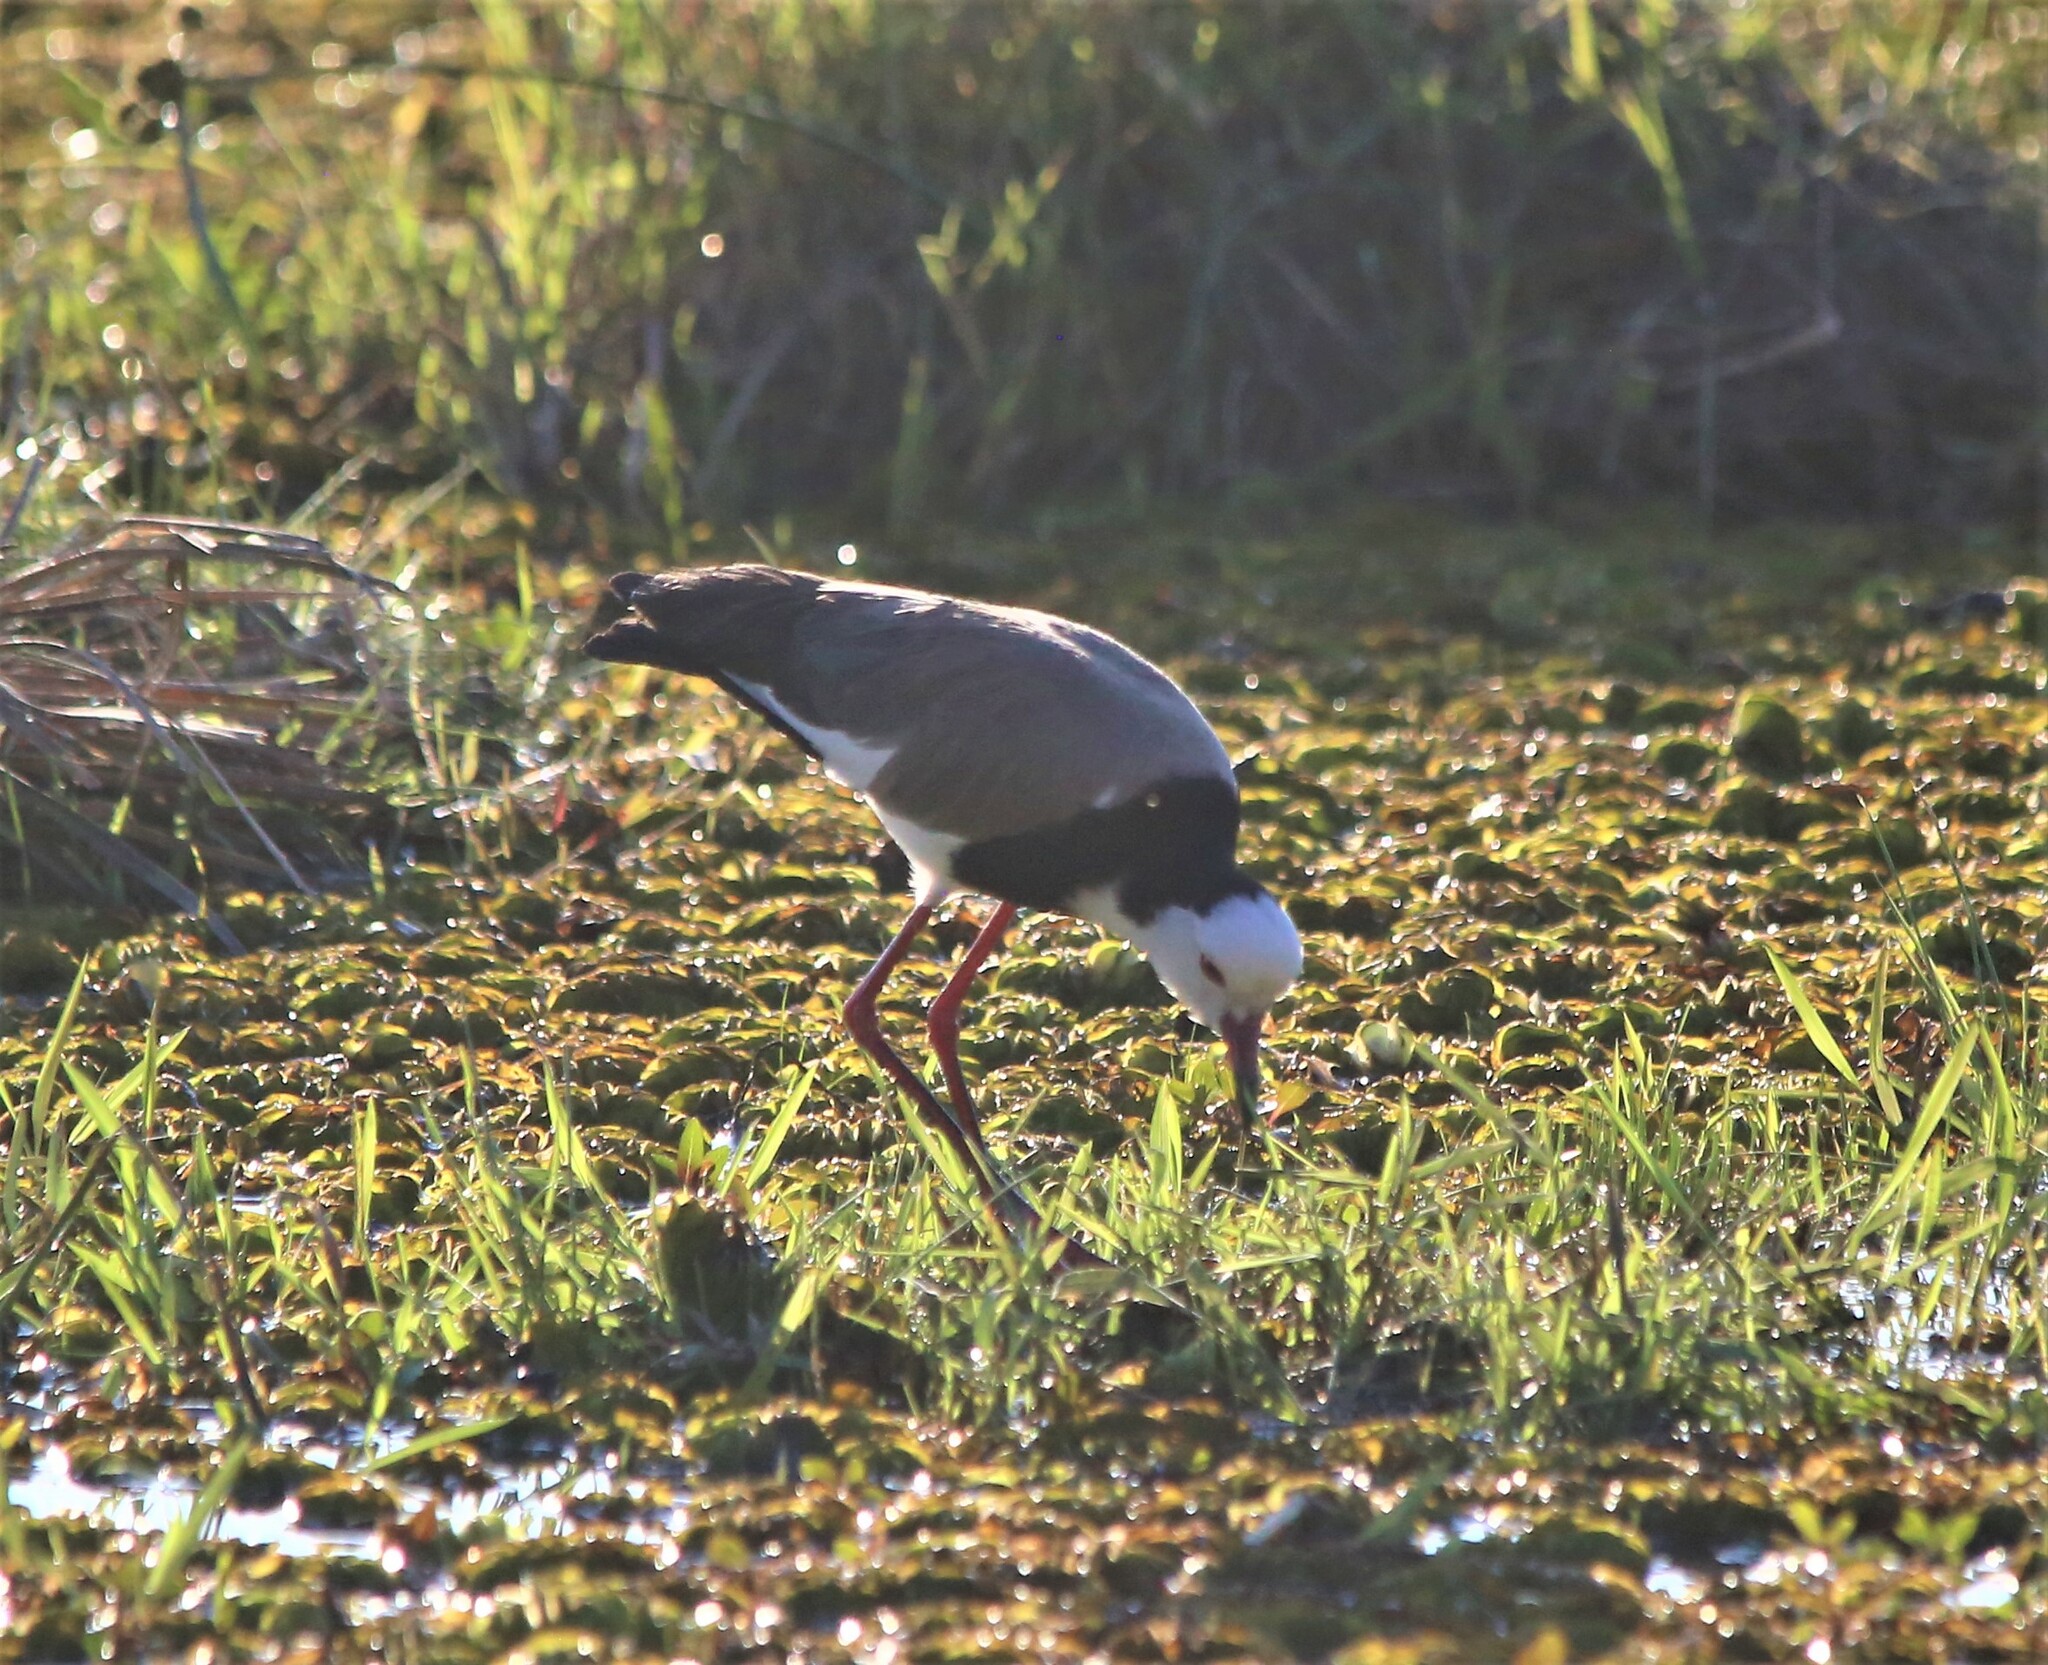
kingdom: Animalia
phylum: Chordata
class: Aves
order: Charadriiformes
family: Charadriidae
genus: Vanellus
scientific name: Vanellus crassirostris
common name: Long-toed lapwing
